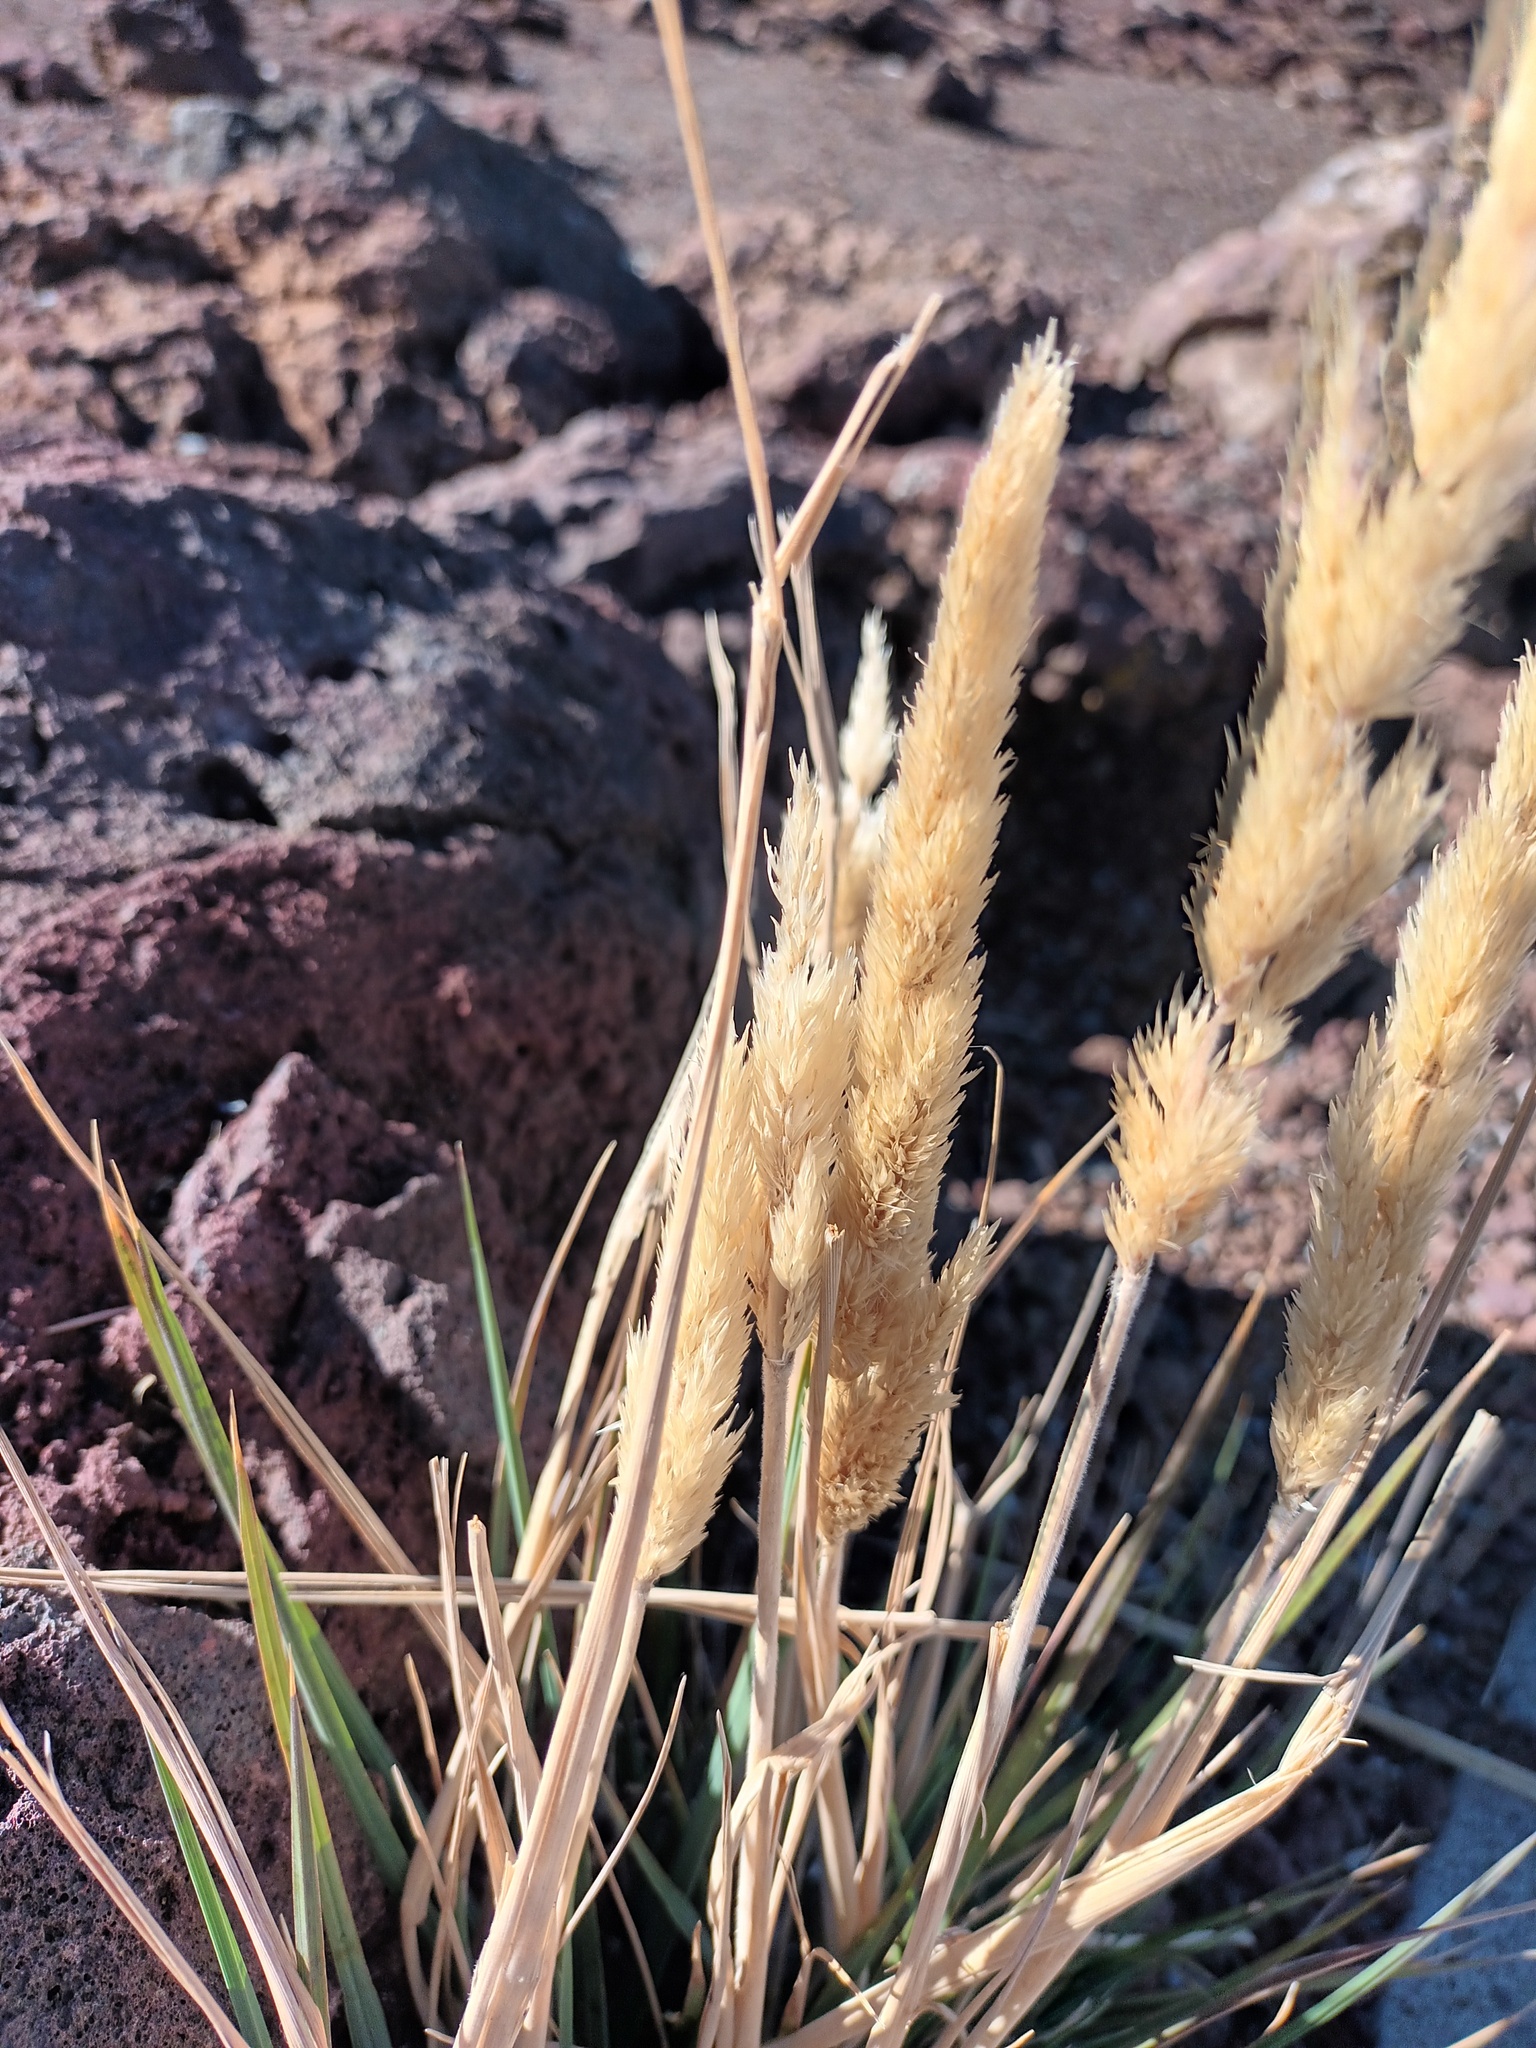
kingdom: Plantae
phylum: Tracheophyta
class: Liliopsida
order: Poales
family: Poaceae
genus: Trisetum
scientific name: Trisetum glomeratum
